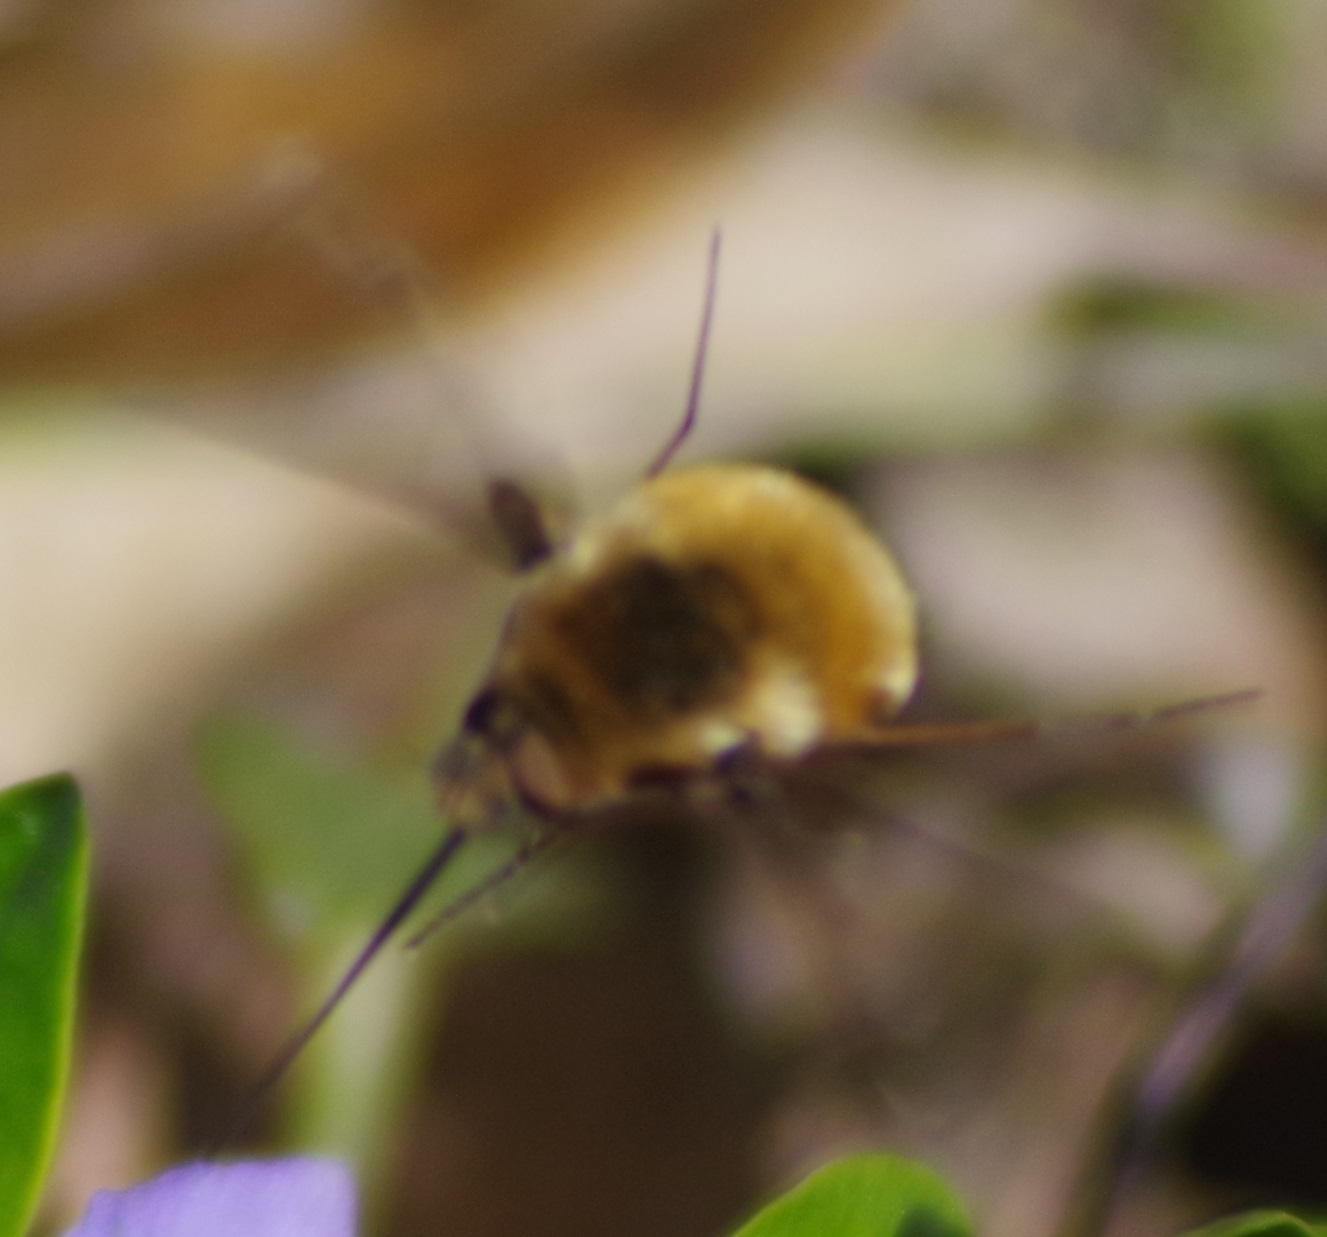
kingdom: Animalia
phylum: Arthropoda
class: Insecta
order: Diptera
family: Bombyliidae
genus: Bombylius
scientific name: Bombylius major
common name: Bee fly
